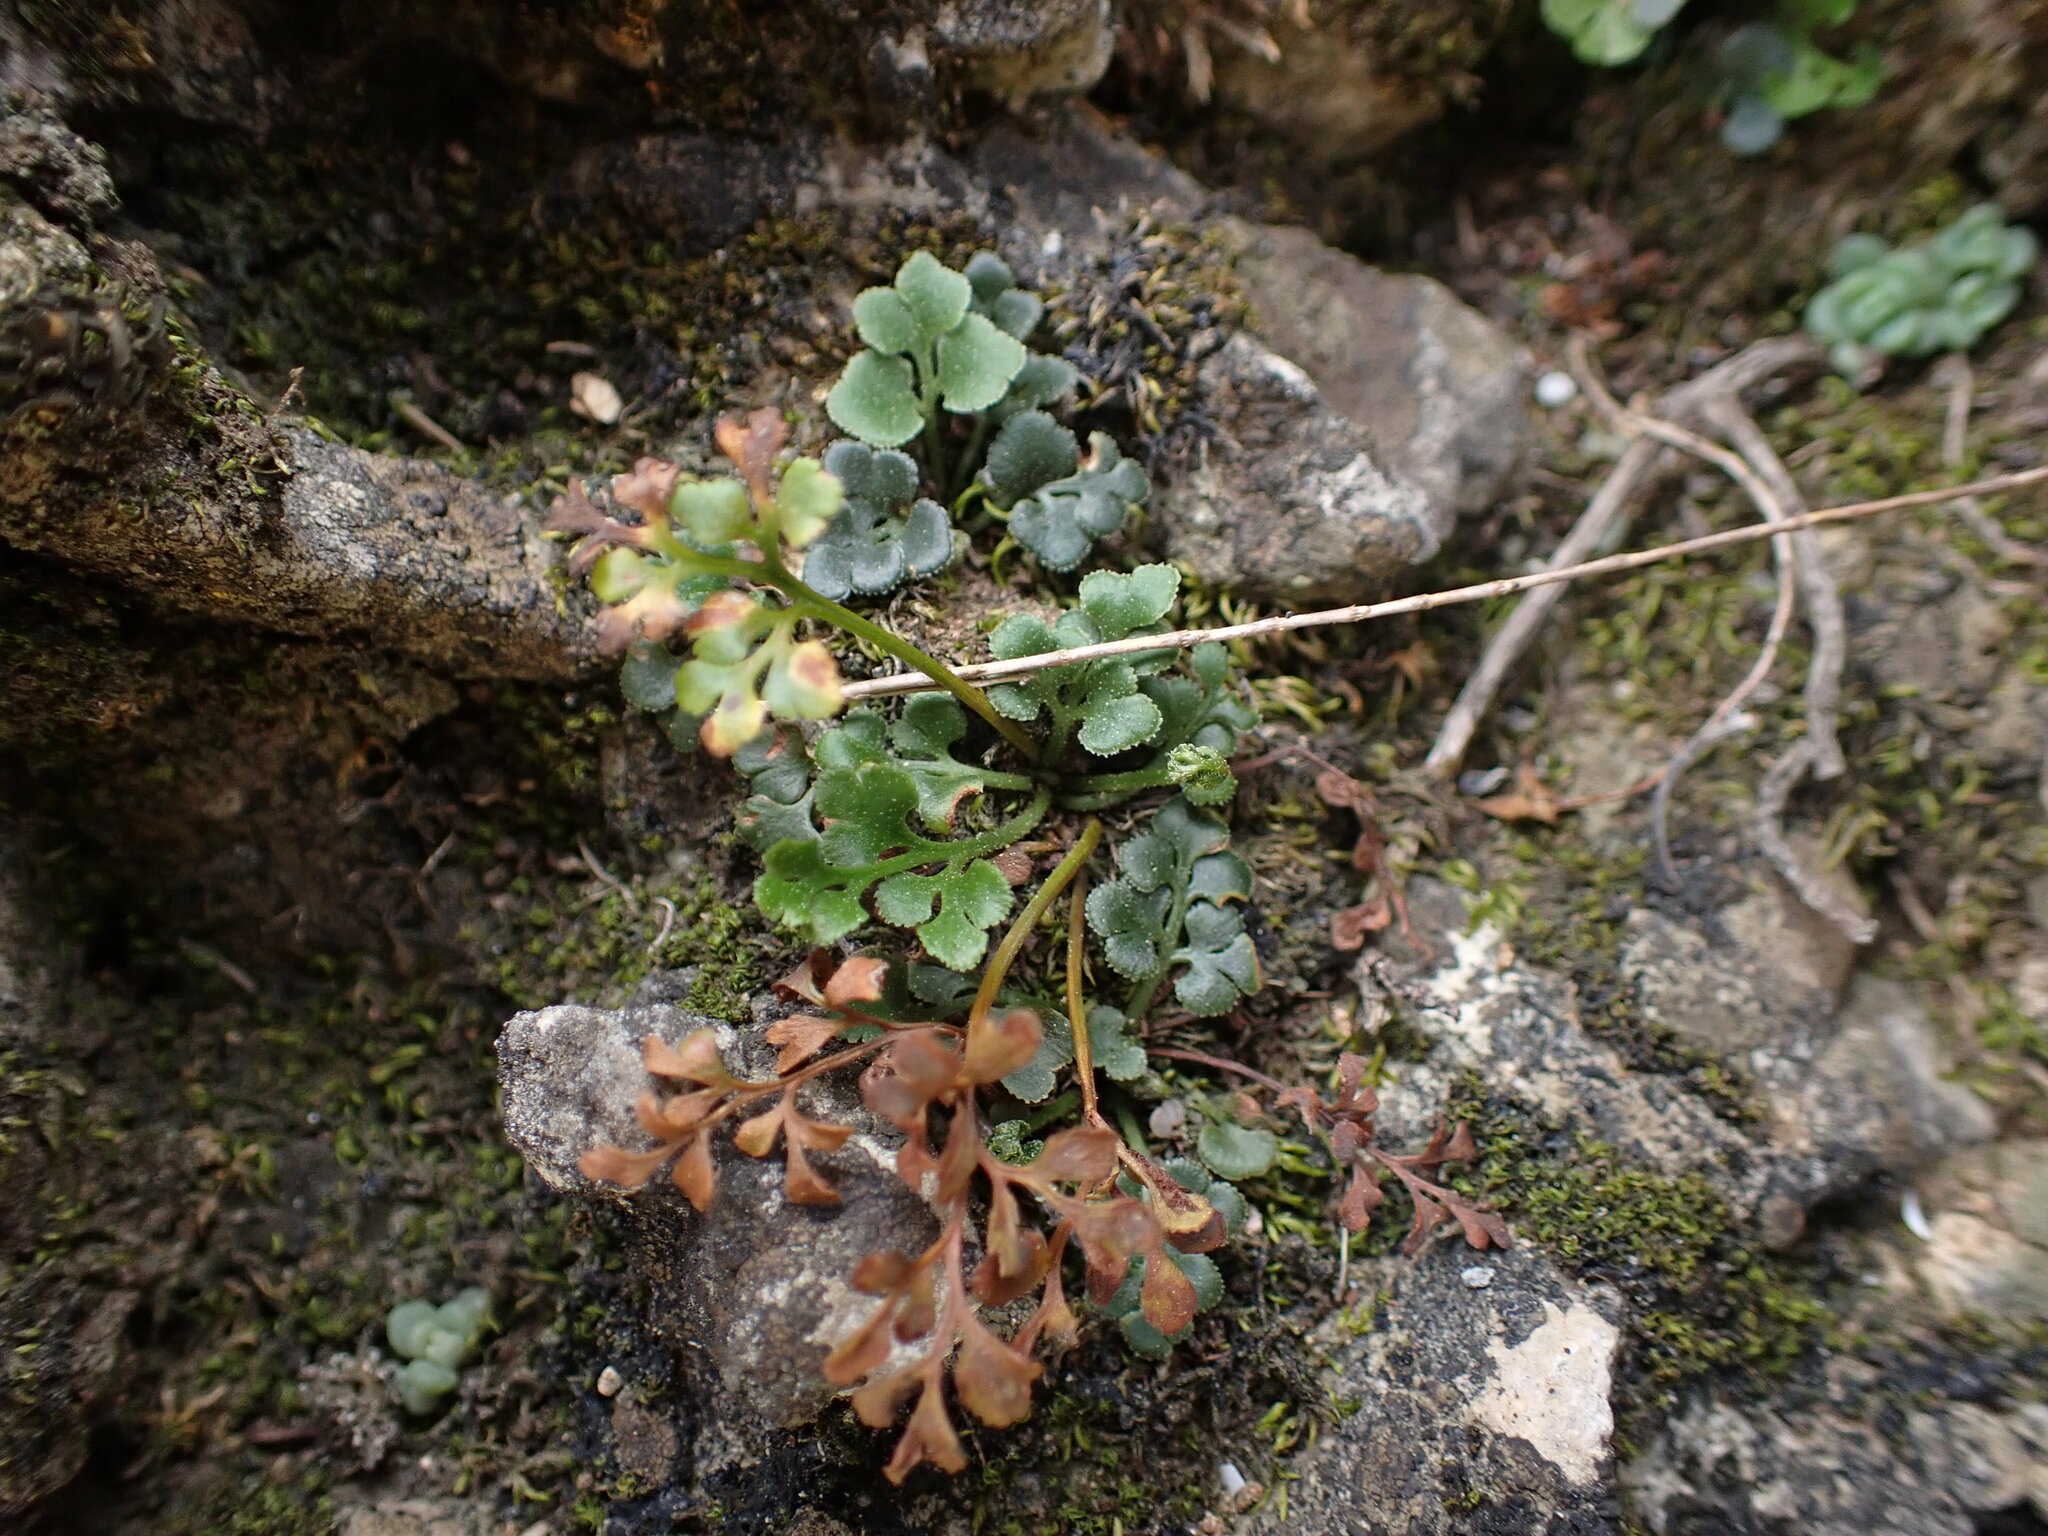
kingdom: Plantae
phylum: Tracheophyta
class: Polypodiopsida
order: Polypodiales
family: Aspleniaceae
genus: Asplenium
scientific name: Asplenium ruta-muraria
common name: Wall-rue
